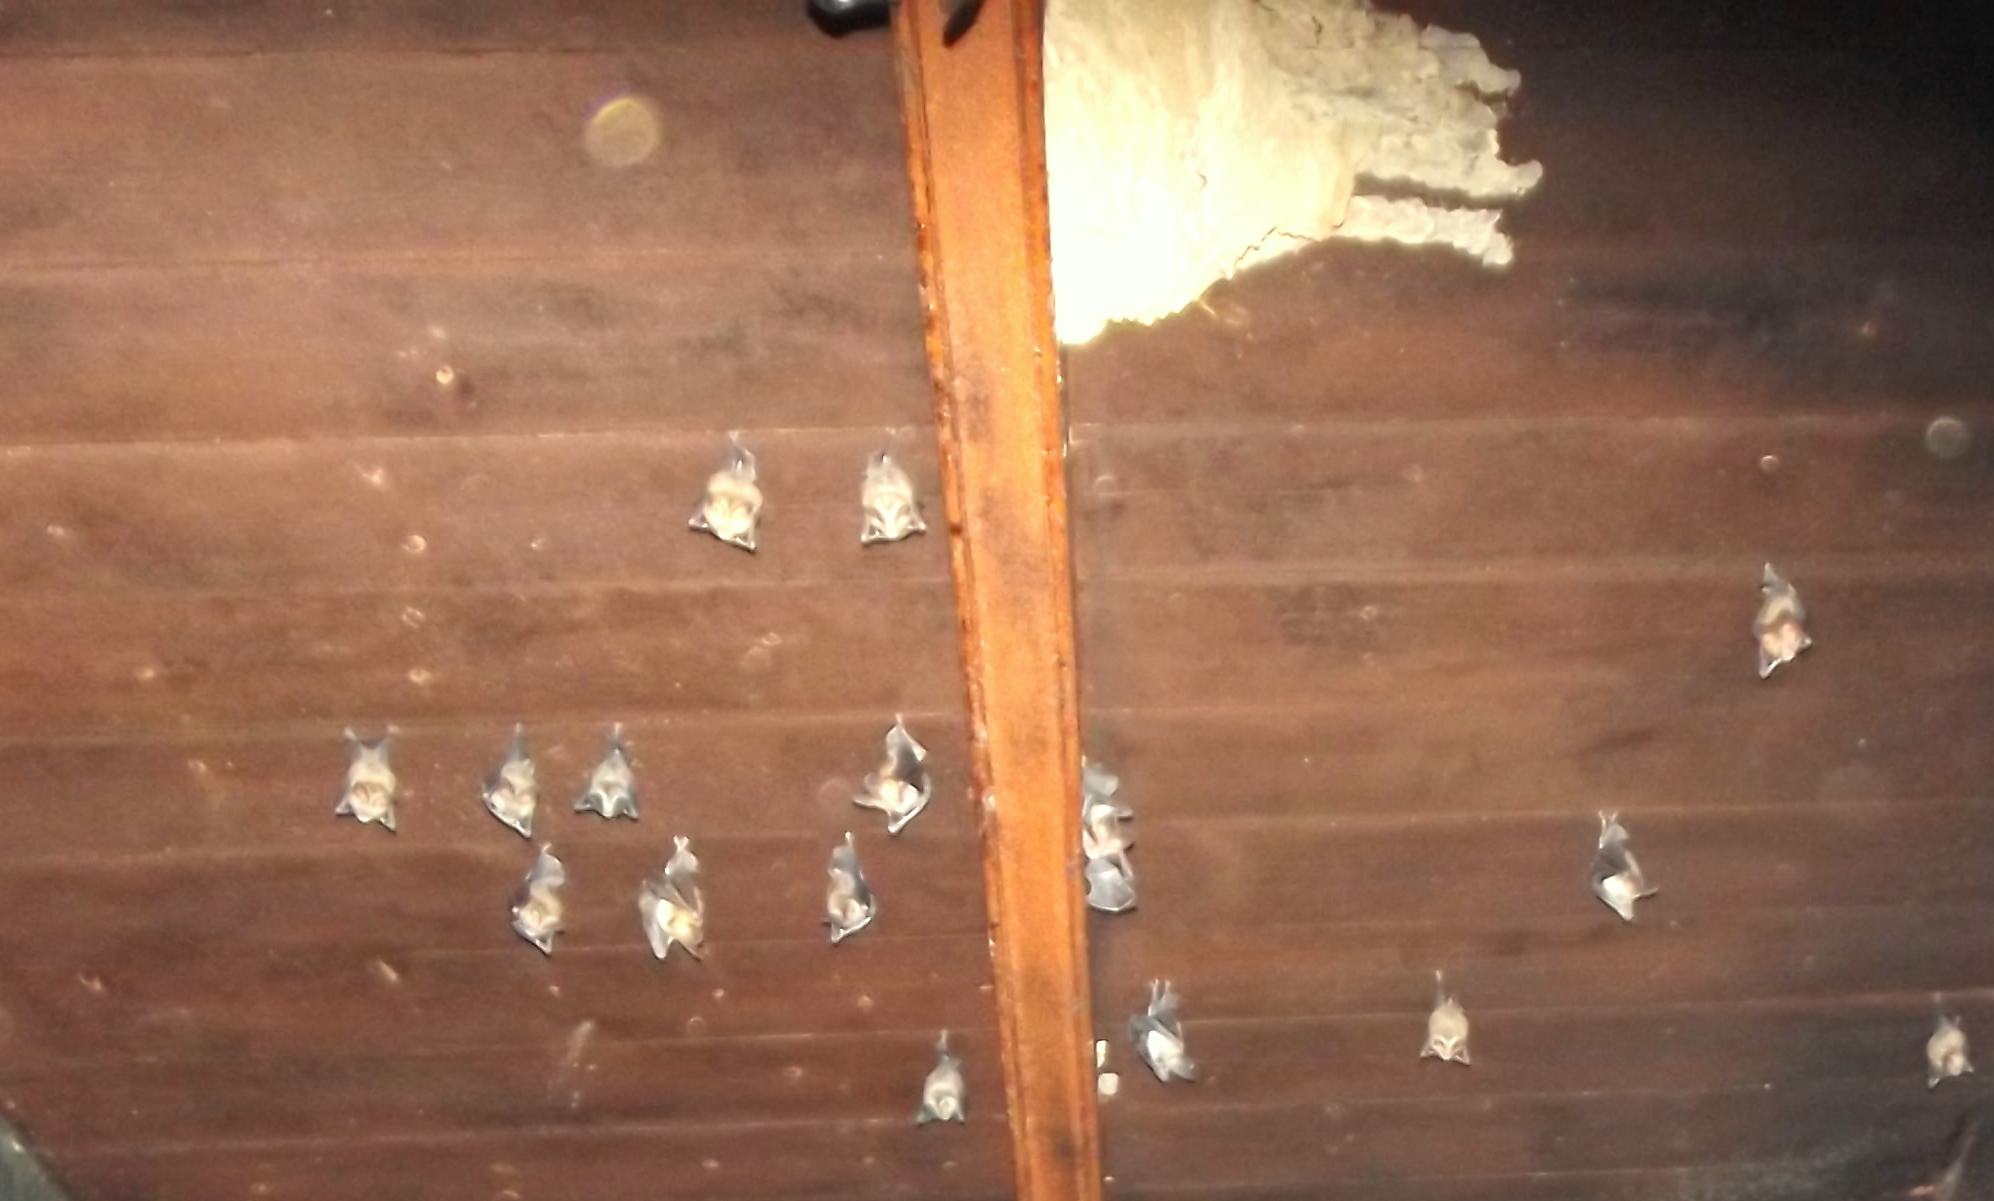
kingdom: Animalia
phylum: Chordata
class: Mammalia
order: Chiroptera
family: Nycteridae
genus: Nycteris
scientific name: Nycteris thebaica
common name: Egyptian slit-faced bat
